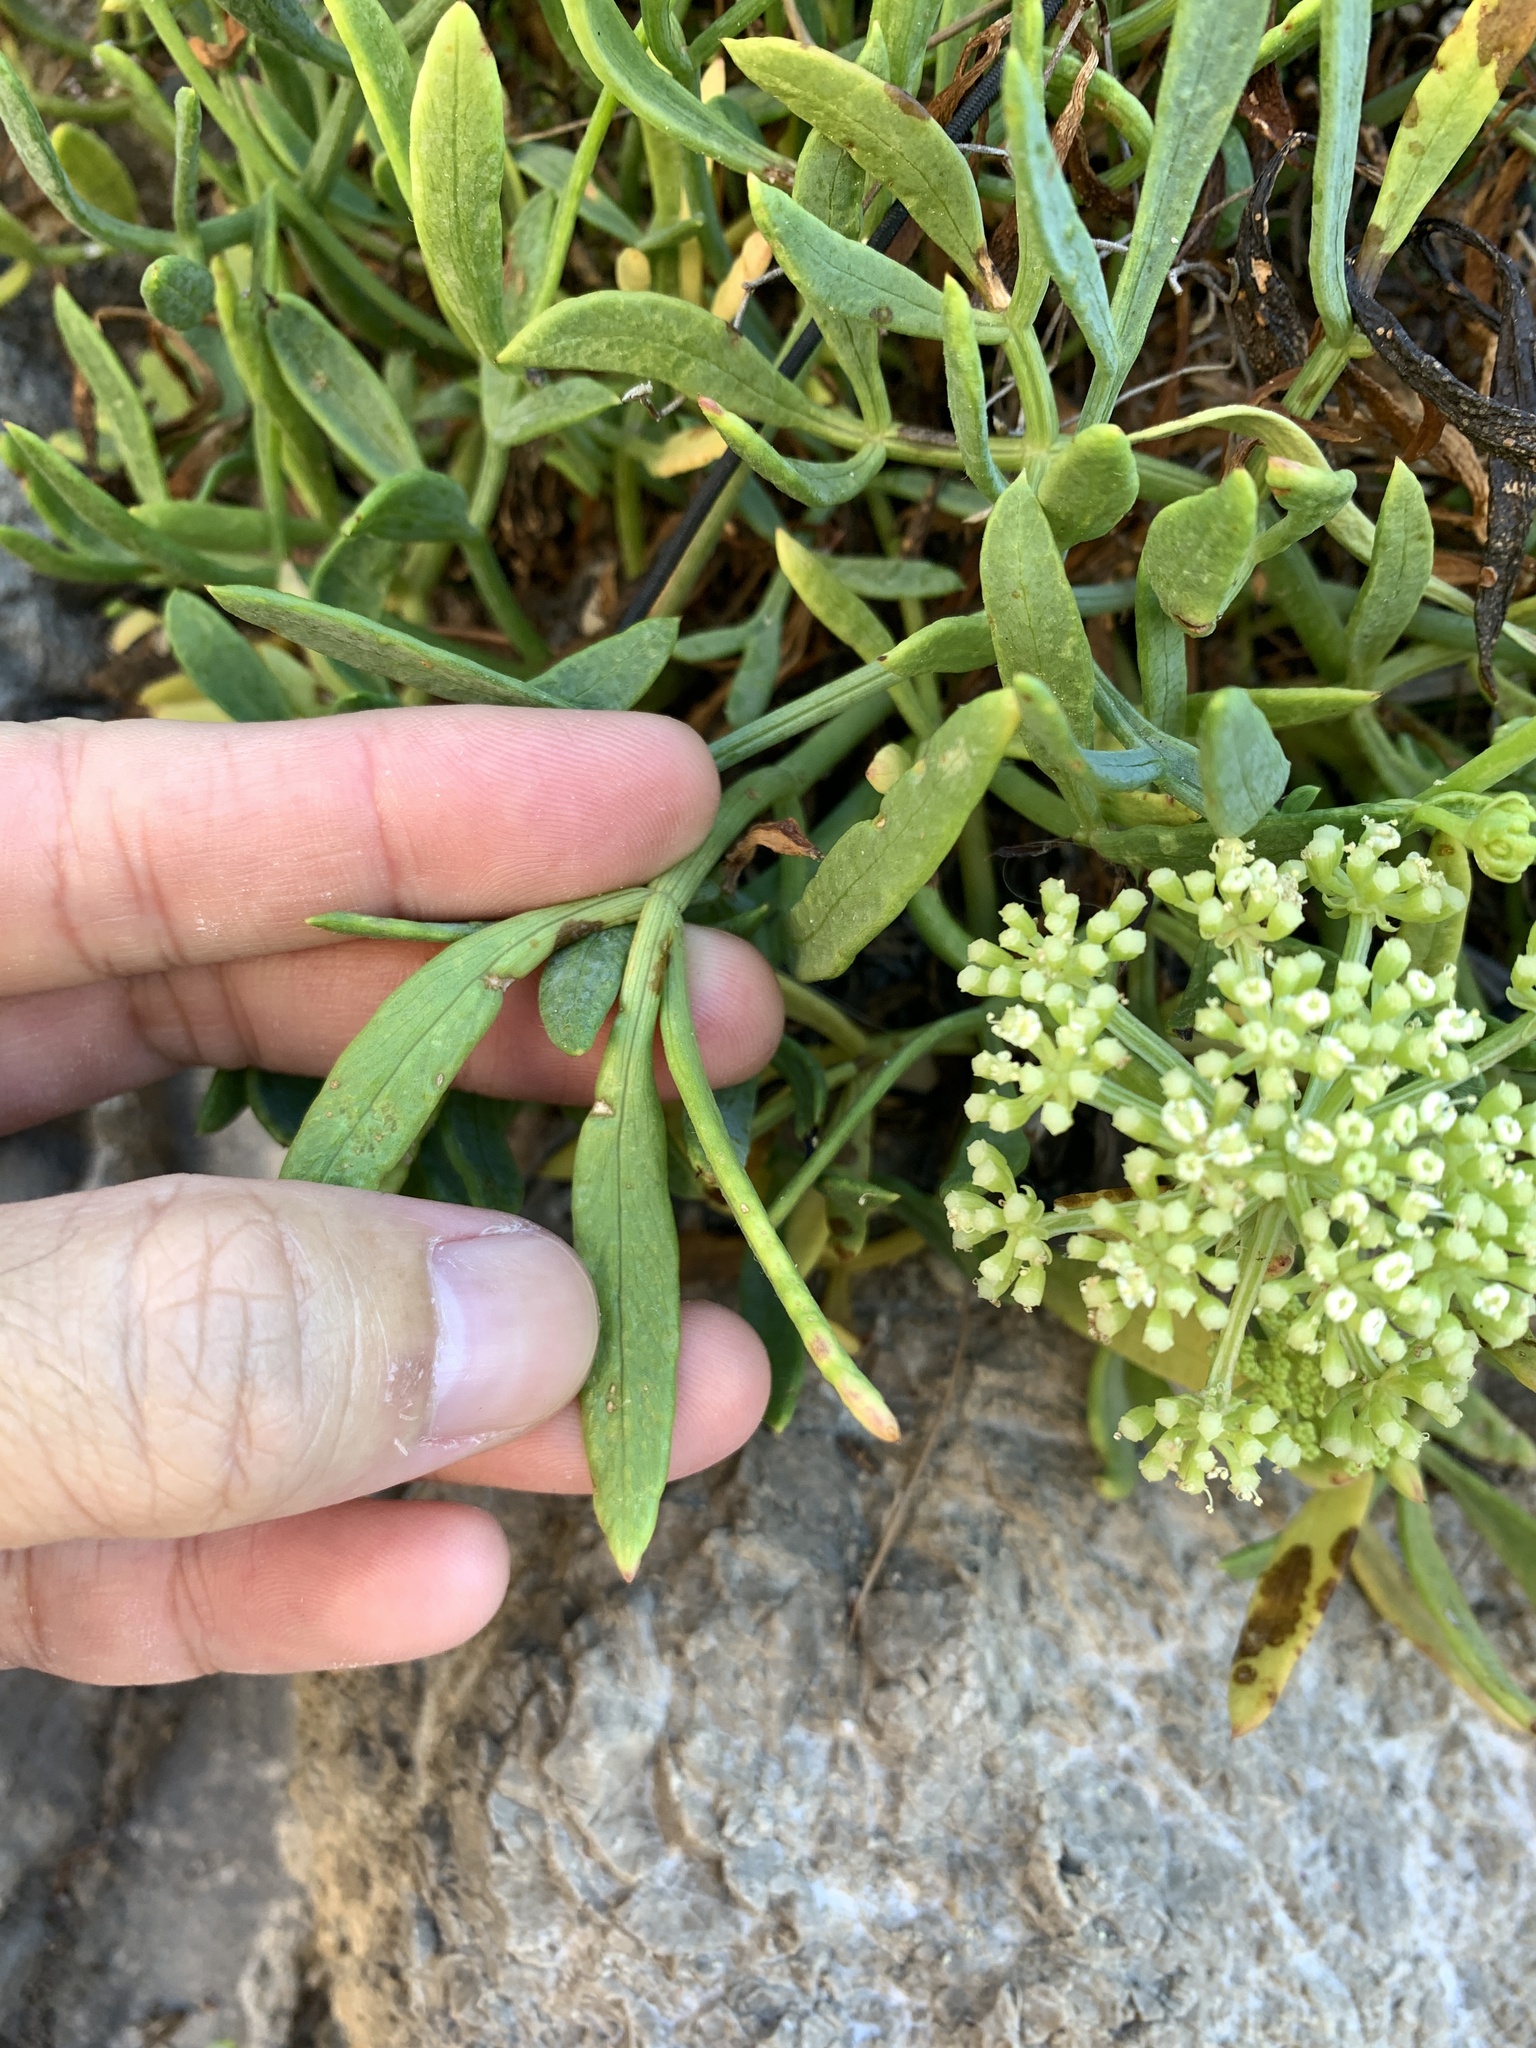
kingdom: Plantae
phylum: Tracheophyta
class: Magnoliopsida
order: Apiales
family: Apiaceae
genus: Crithmum
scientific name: Crithmum maritimum
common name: Rock samphire
